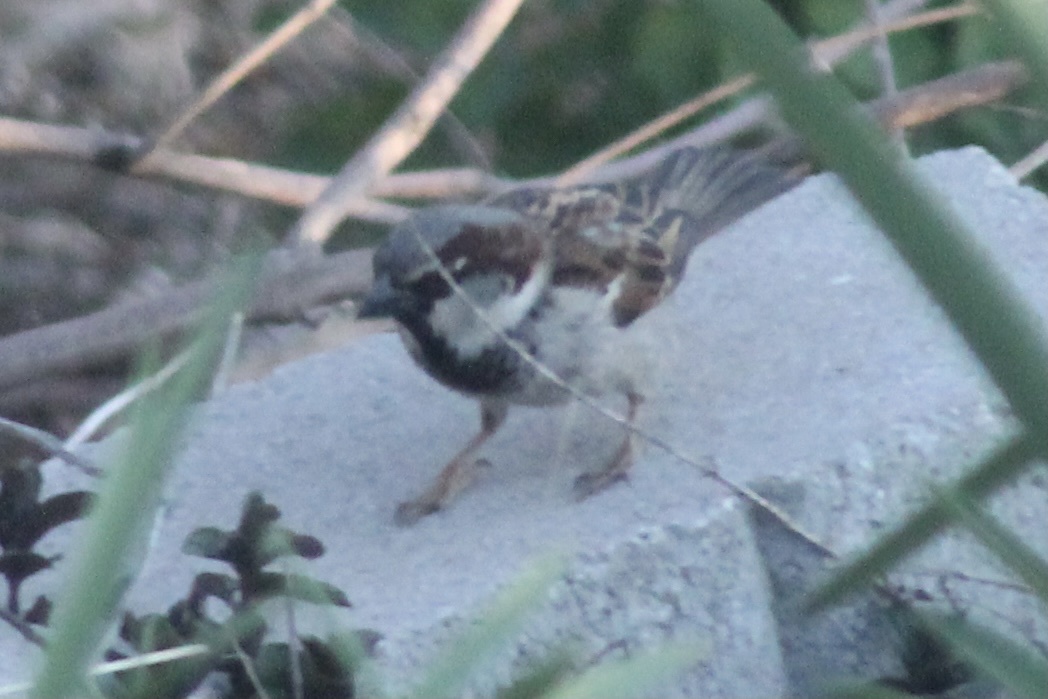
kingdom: Animalia
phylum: Chordata
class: Aves
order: Passeriformes
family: Passeridae
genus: Passer
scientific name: Passer domesticus
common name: House sparrow
